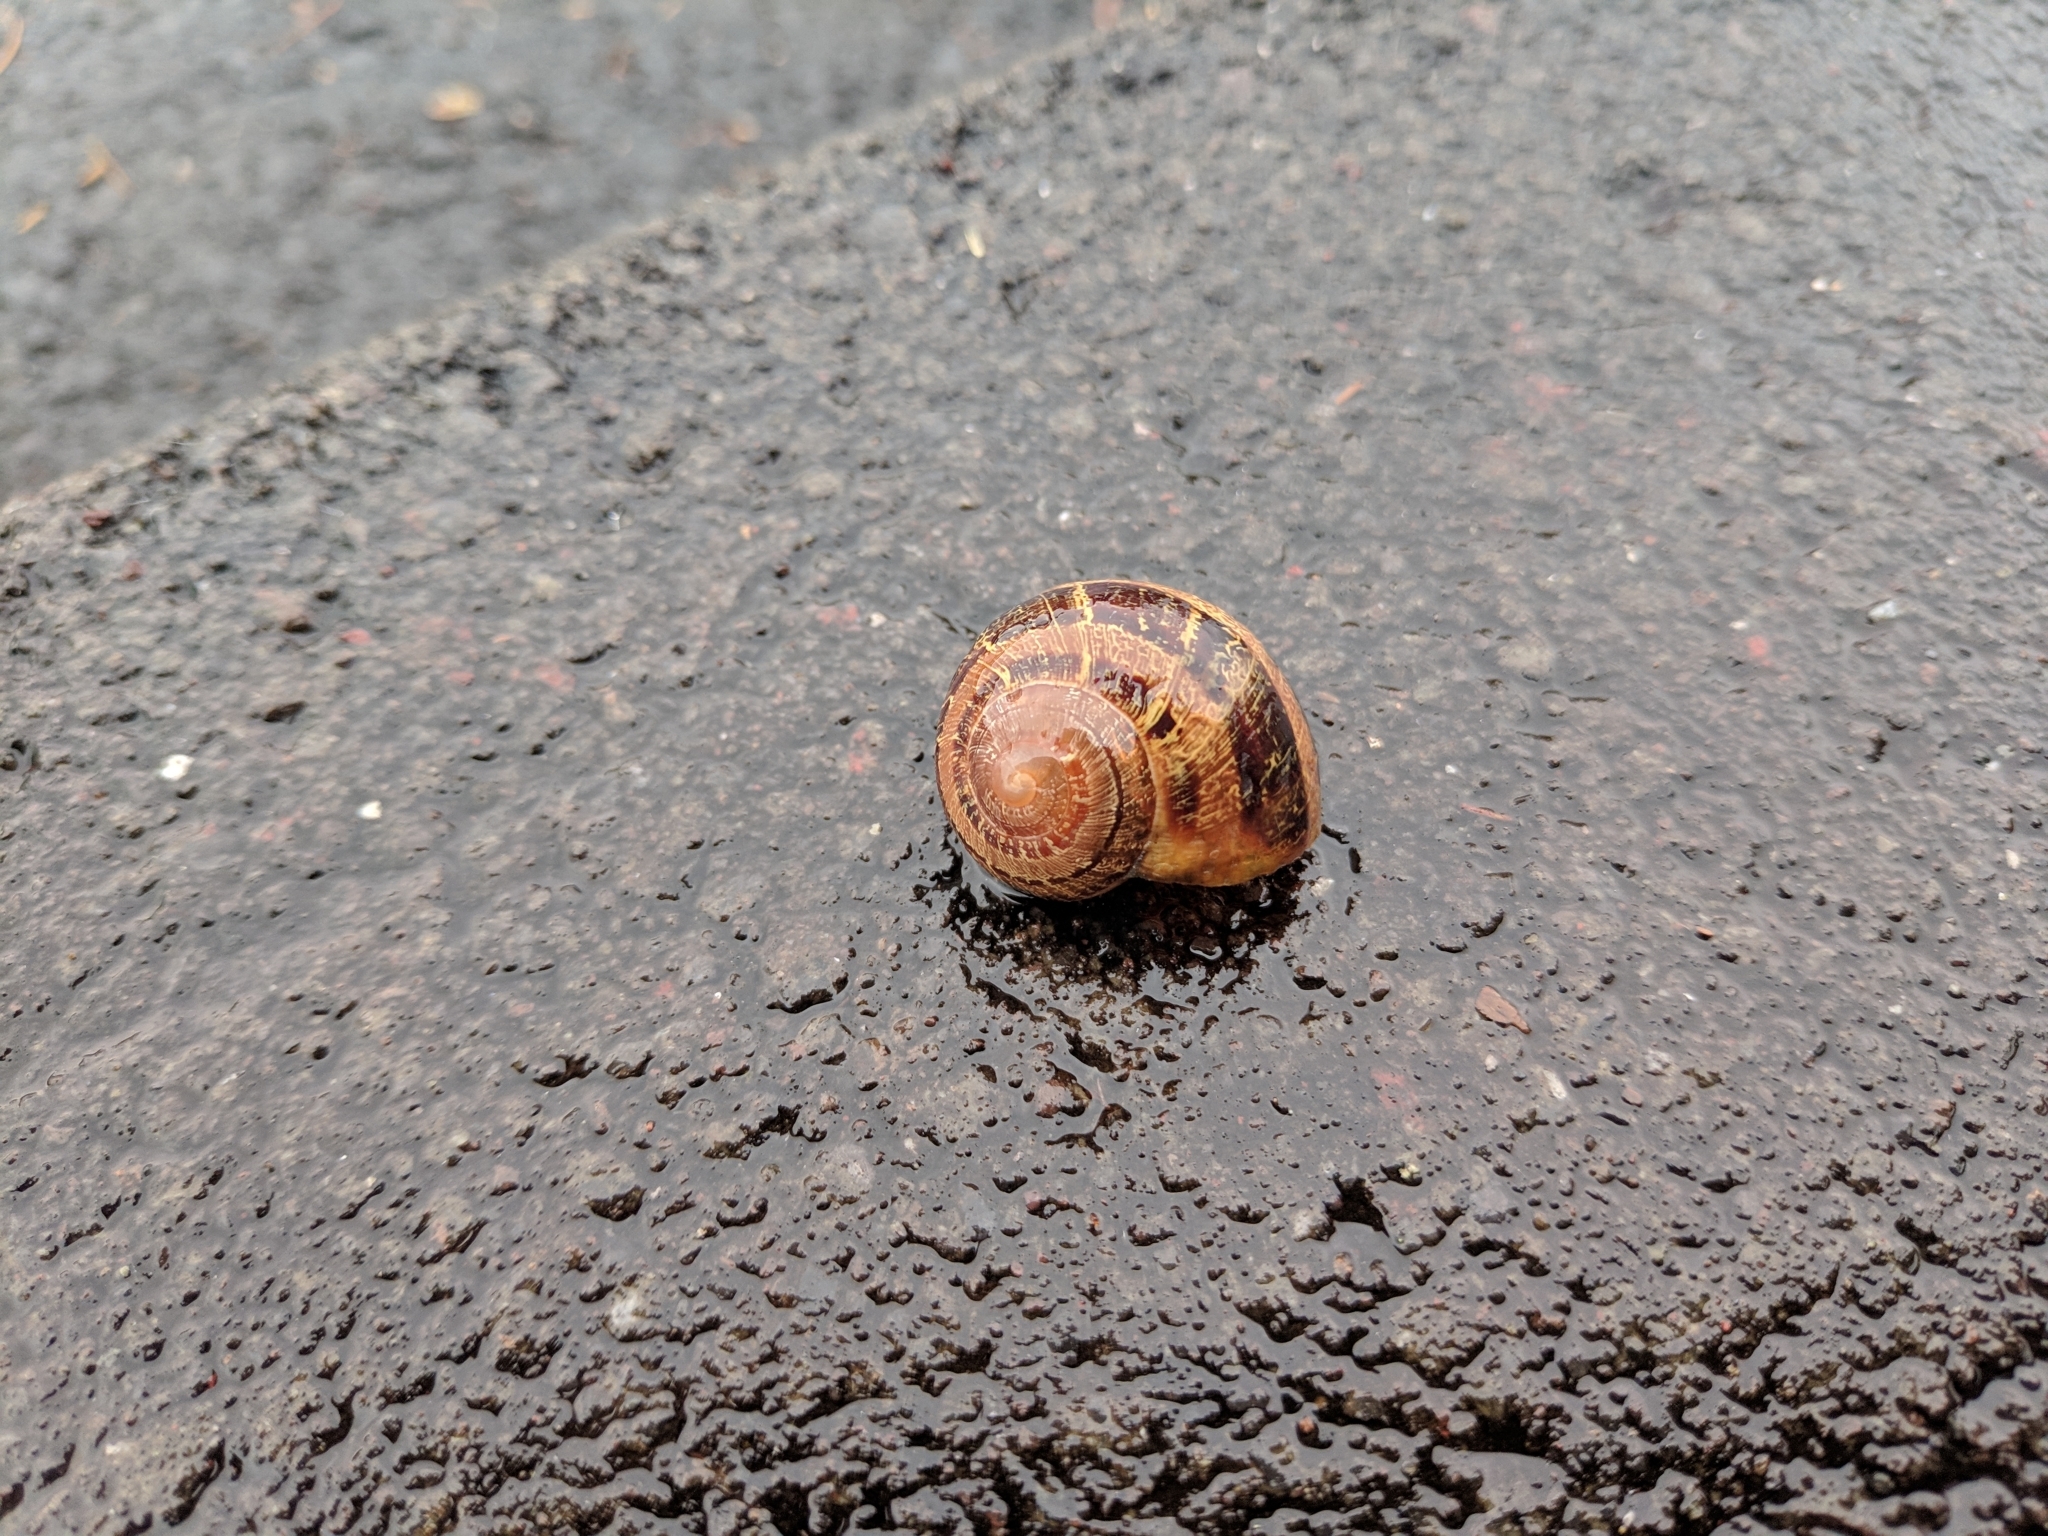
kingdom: Animalia
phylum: Mollusca
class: Gastropoda
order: Stylommatophora
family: Helicidae
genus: Cornu
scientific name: Cornu aspersum
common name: Brown garden snail
